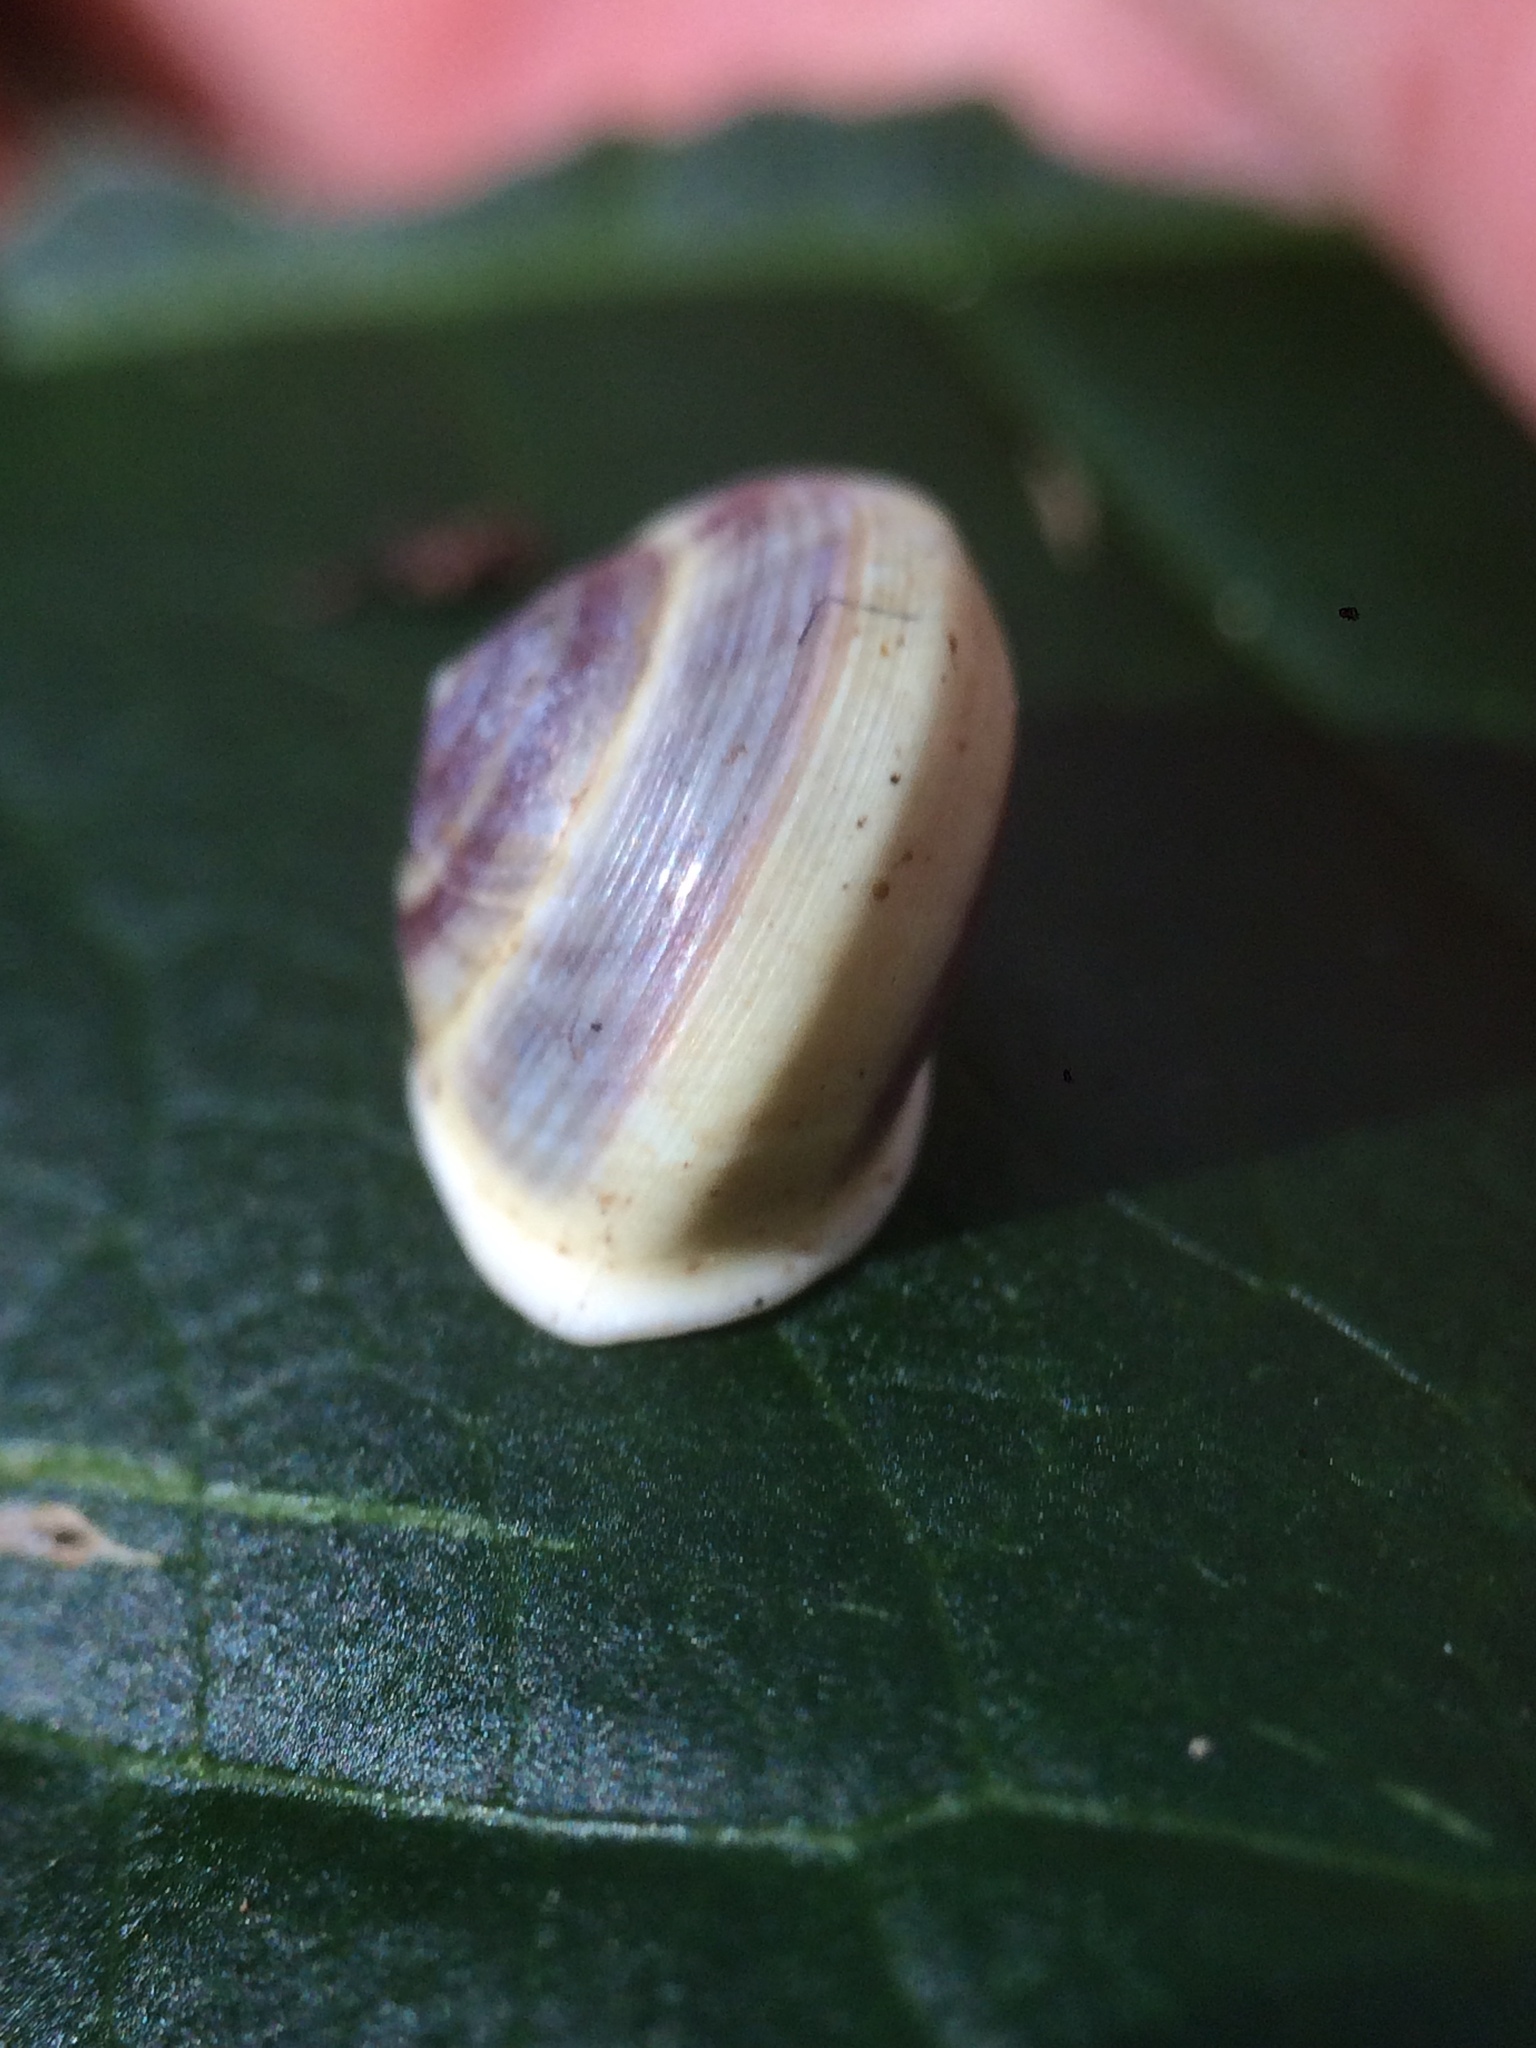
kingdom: Animalia
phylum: Mollusca
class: Gastropoda
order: Cycloneritida
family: Helicinidae
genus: Helicina
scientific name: Helicina variabilis
